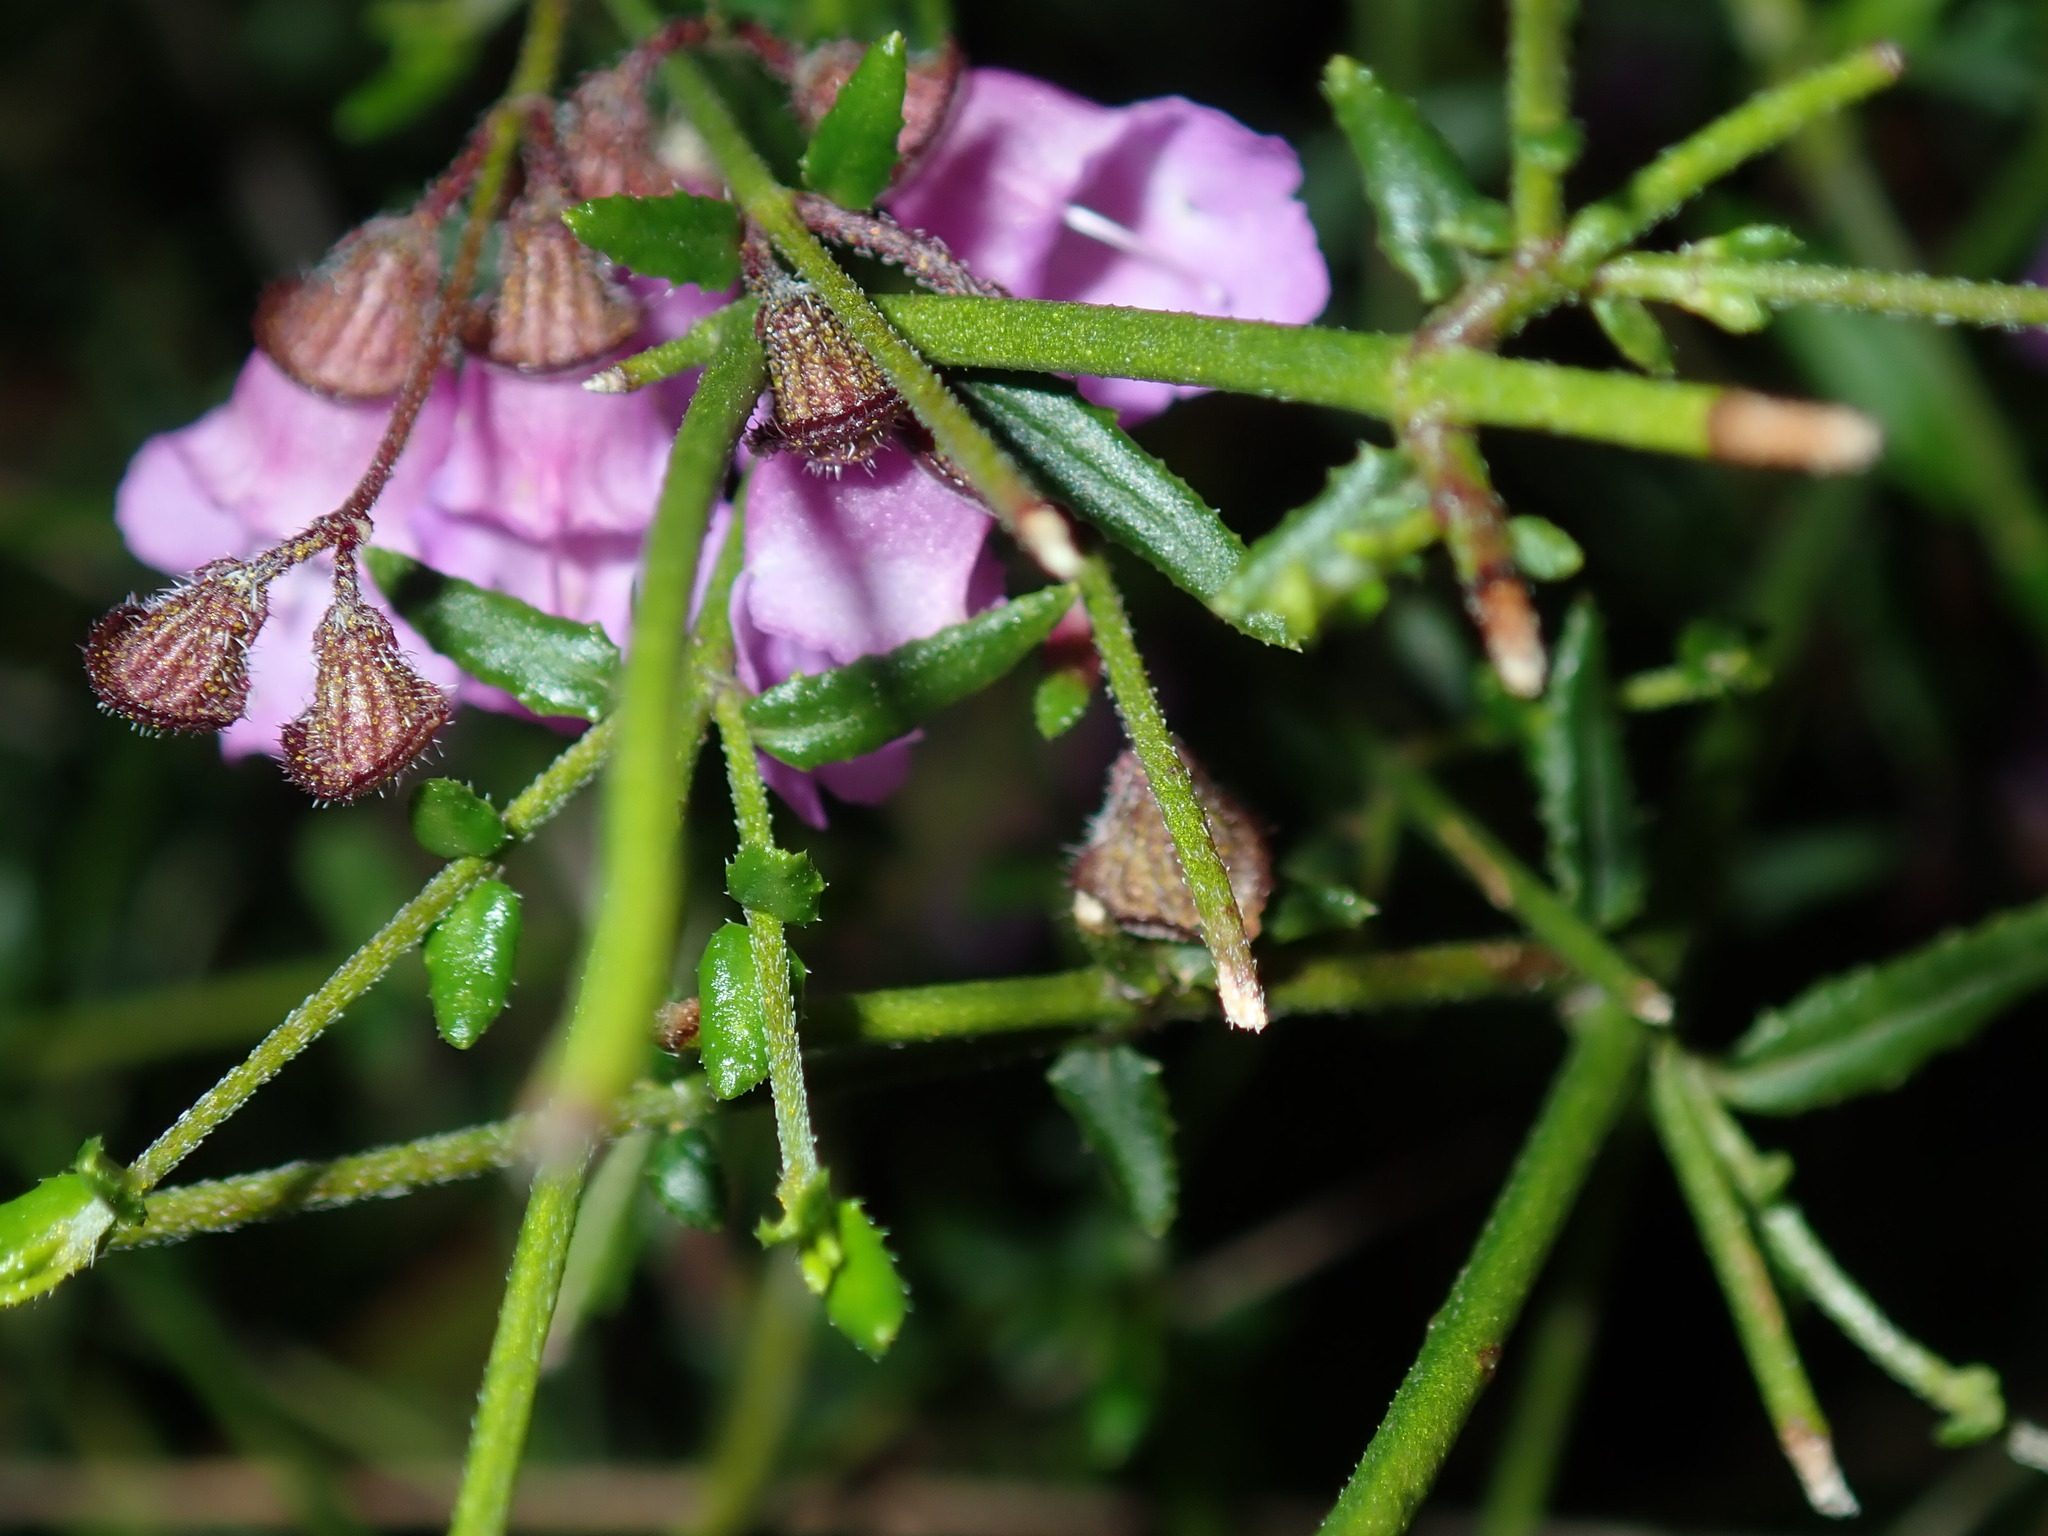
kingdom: Plantae
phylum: Tracheophyta
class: Magnoliopsida
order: Lamiales
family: Lamiaceae
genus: Prostanthera
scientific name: Prostanthera denticulata
